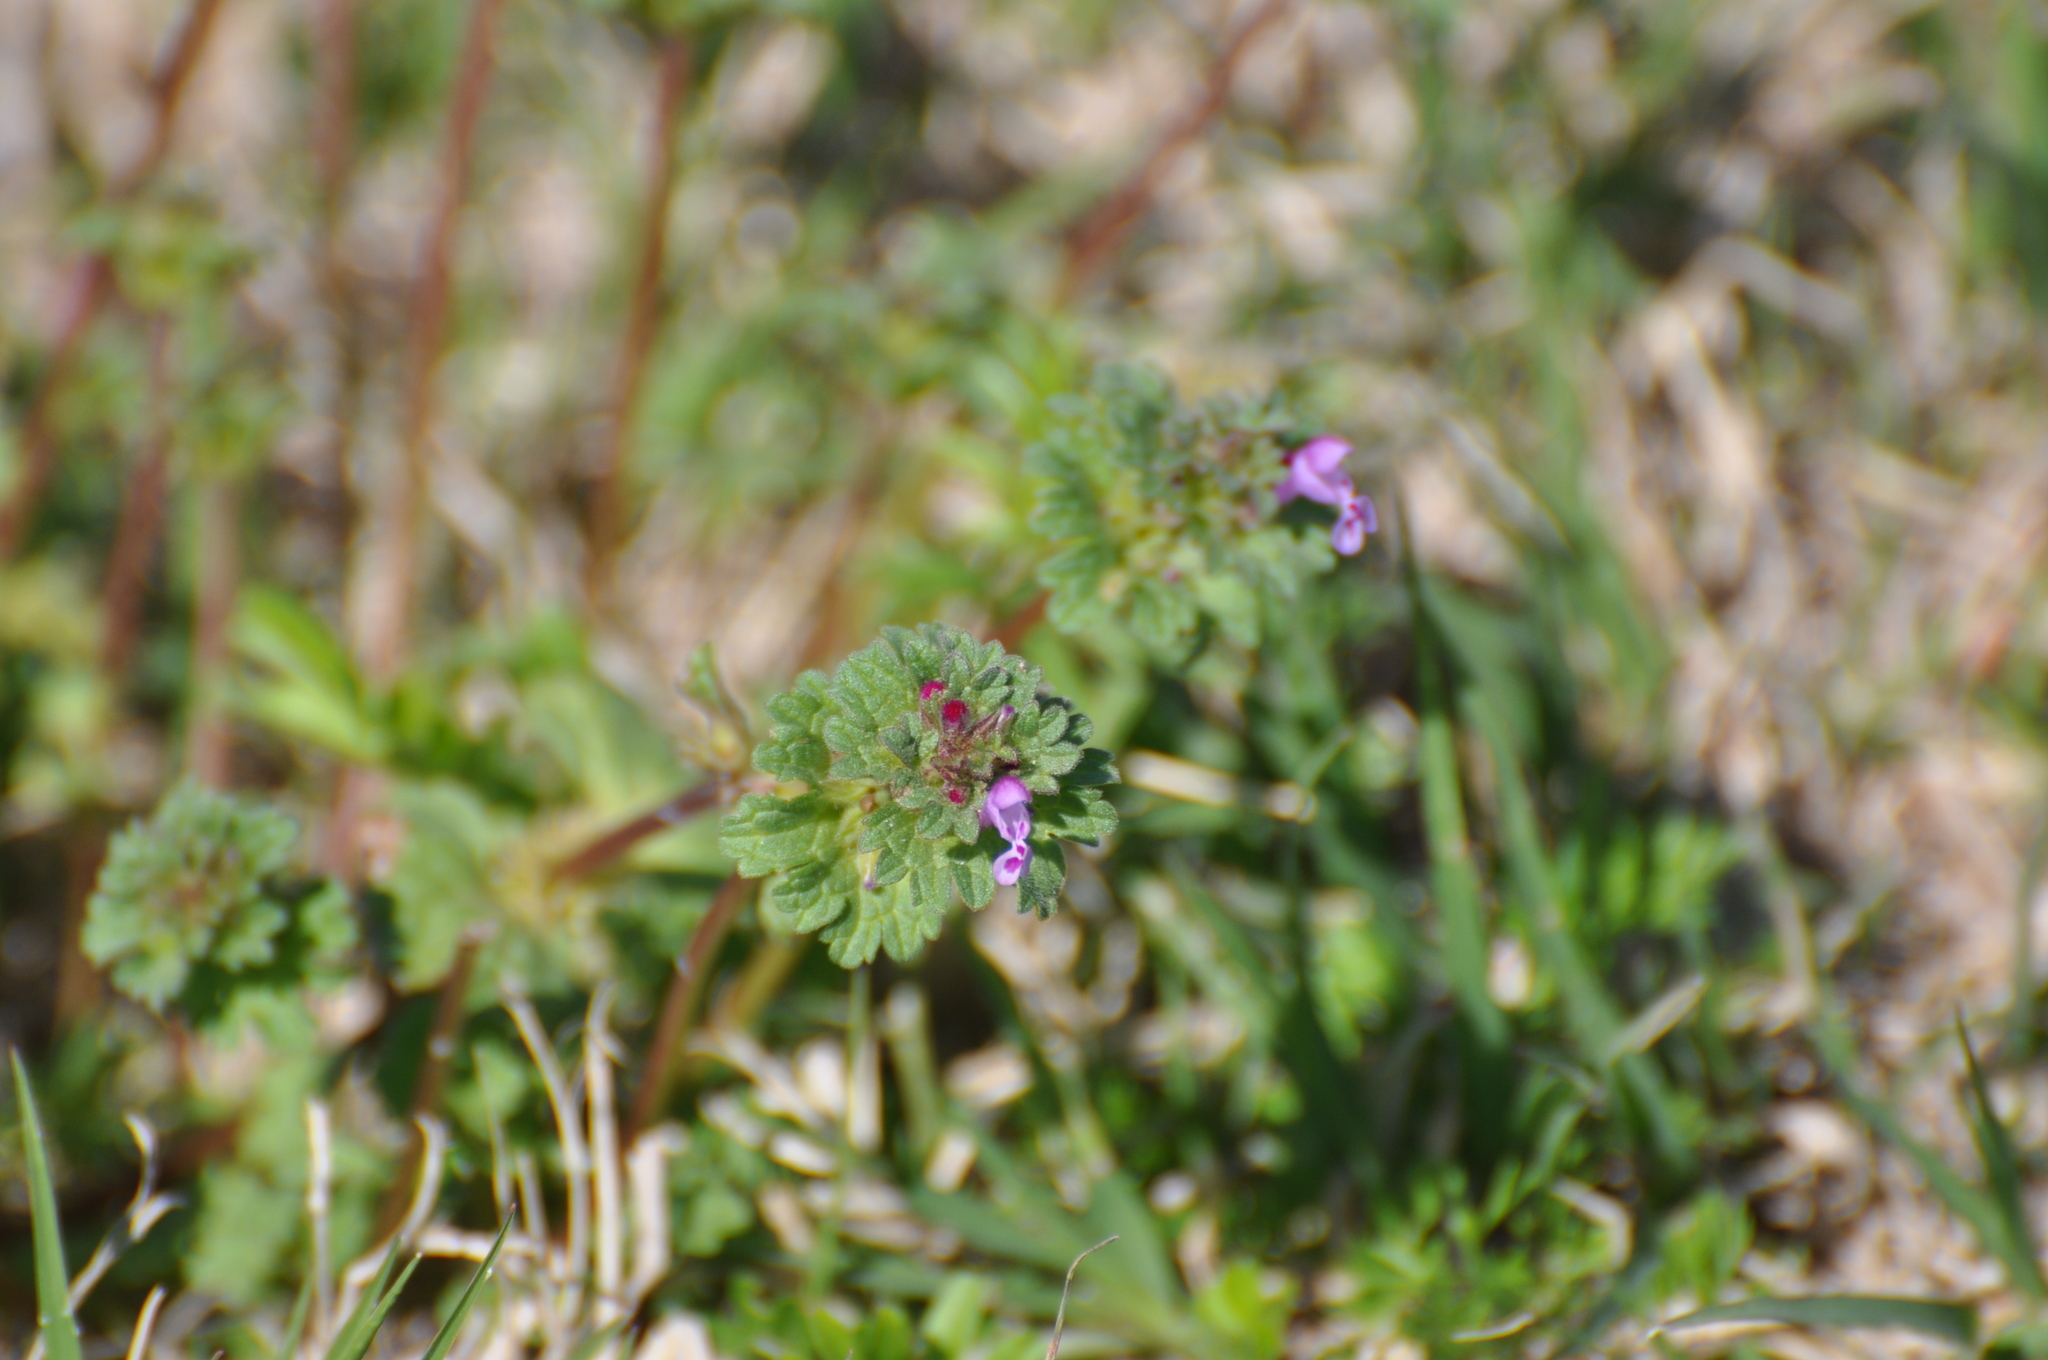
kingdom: Plantae
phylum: Tracheophyta
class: Magnoliopsida
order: Lamiales
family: Lamiaceae
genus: Lamium
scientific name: Lamium amplexicaule
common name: Henbit dead-nettle
